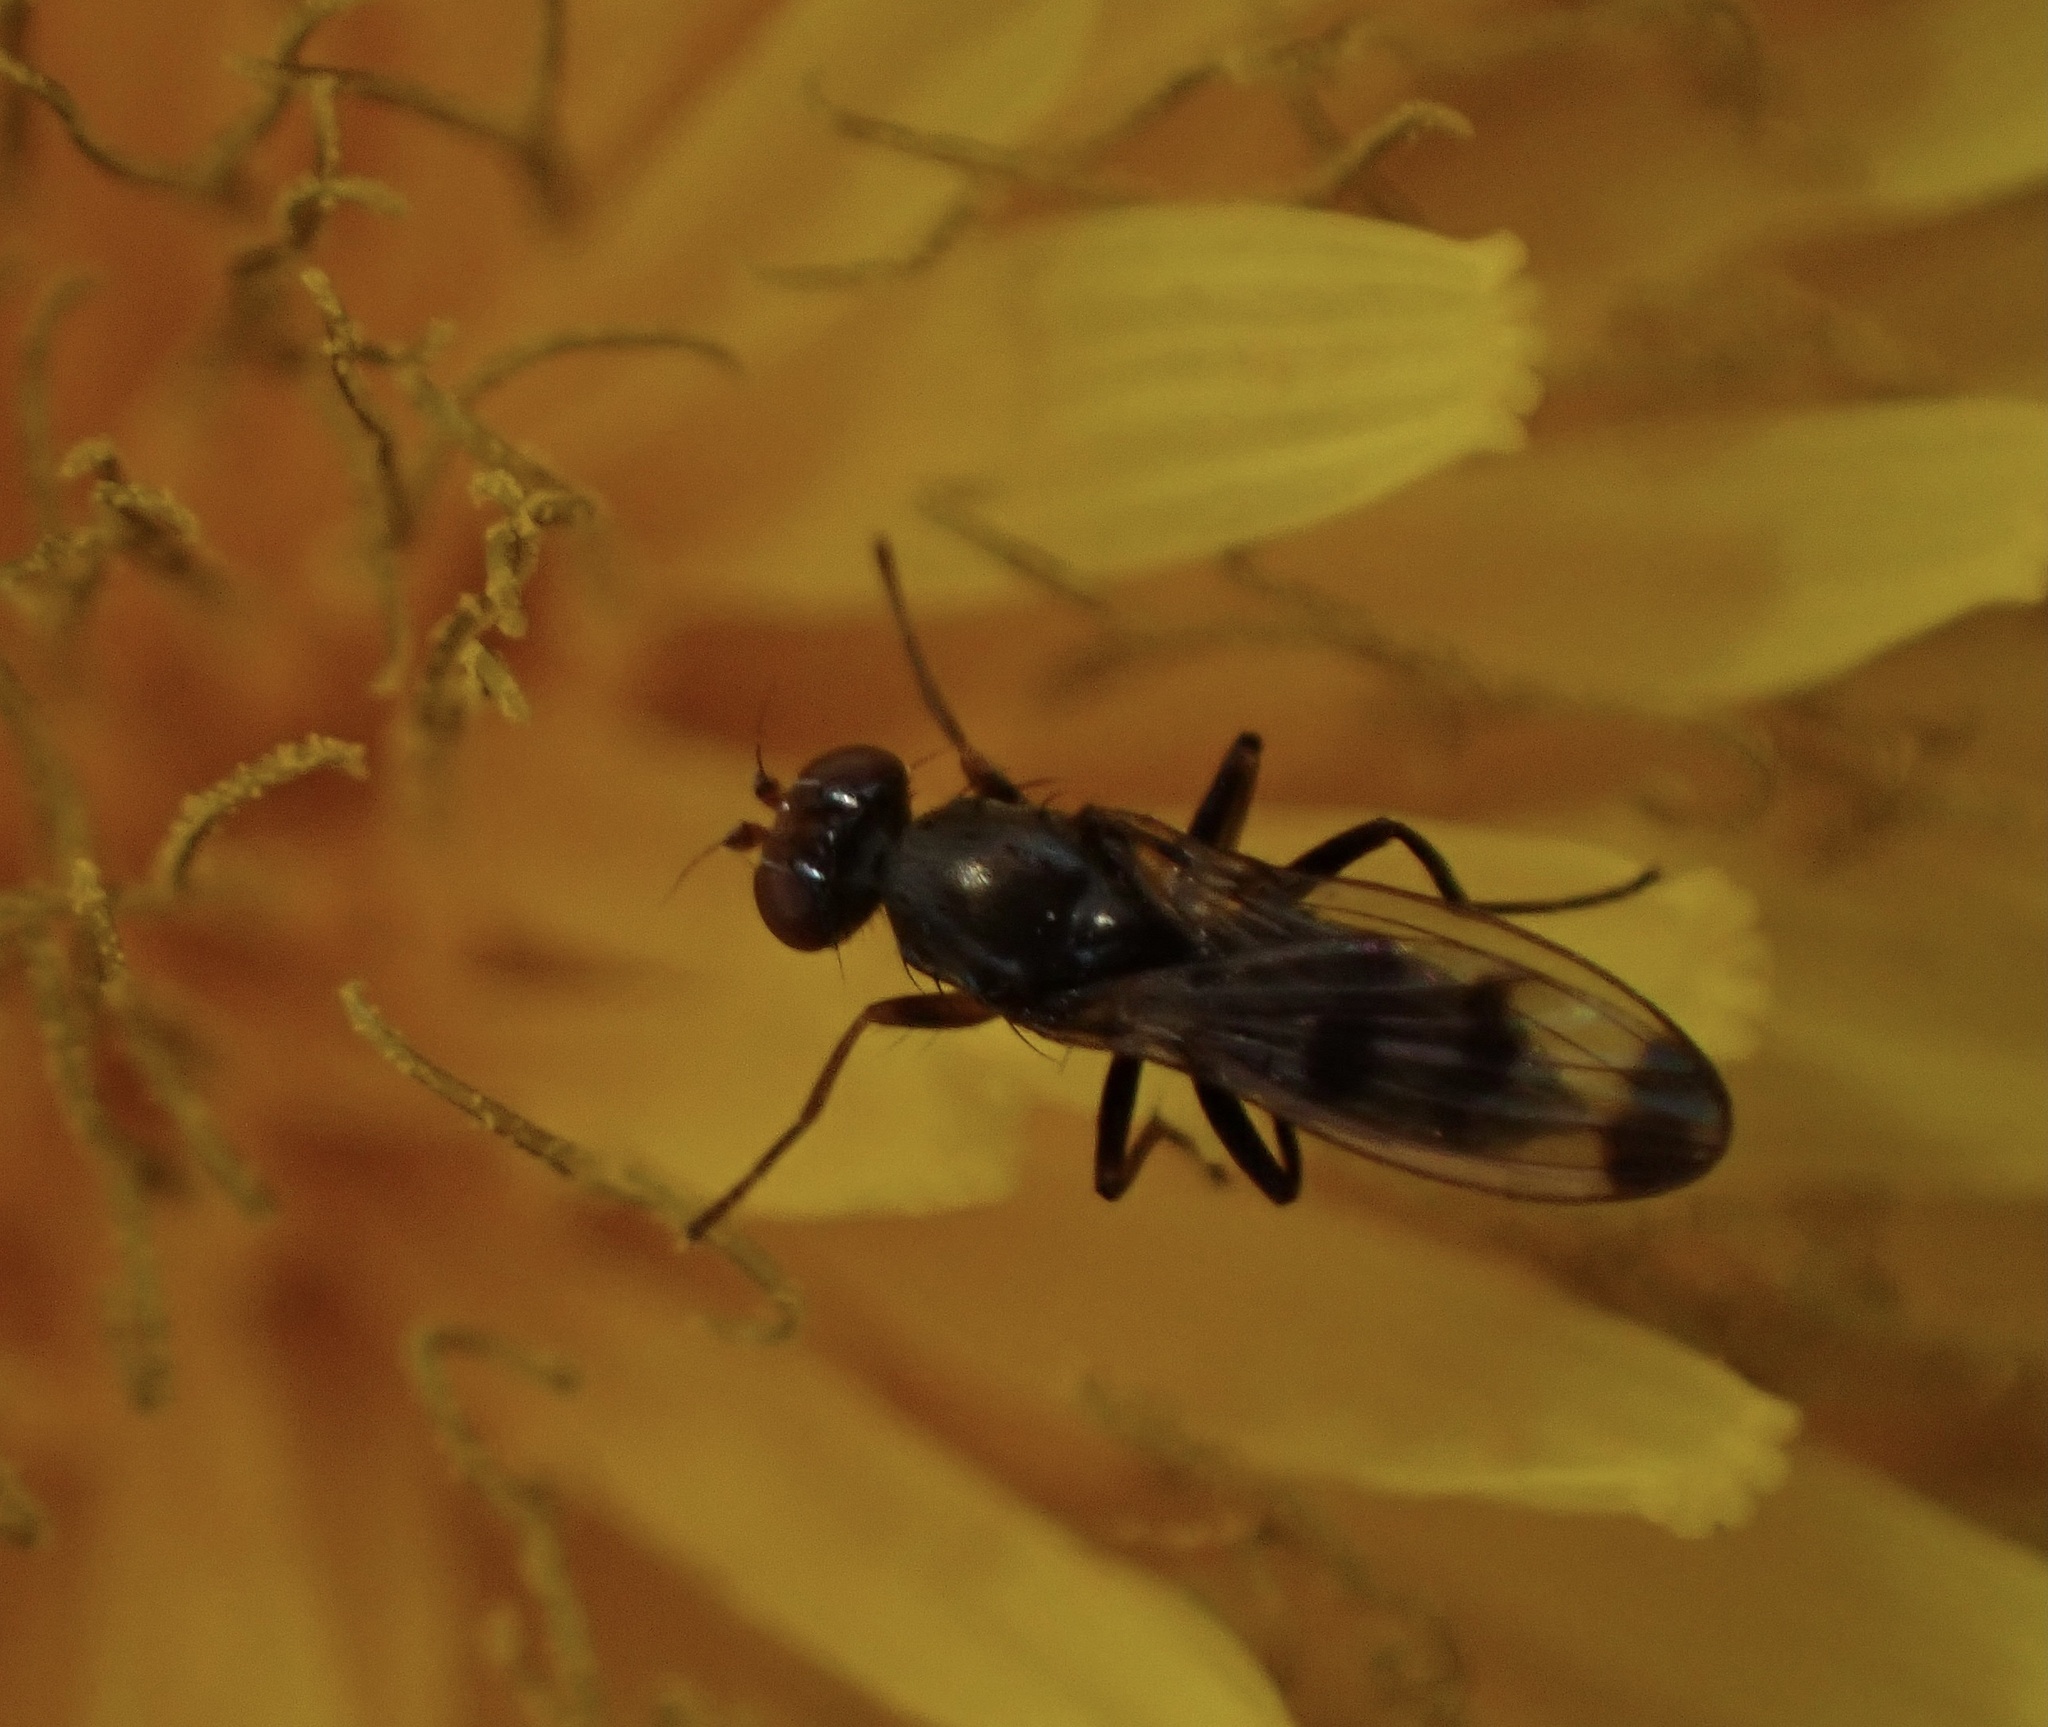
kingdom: Animalia
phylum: Arthropoda
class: Insecta
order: Diptera
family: Opomyzidae
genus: Geomyza
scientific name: Geomyza tripunctata
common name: Cereal fly
